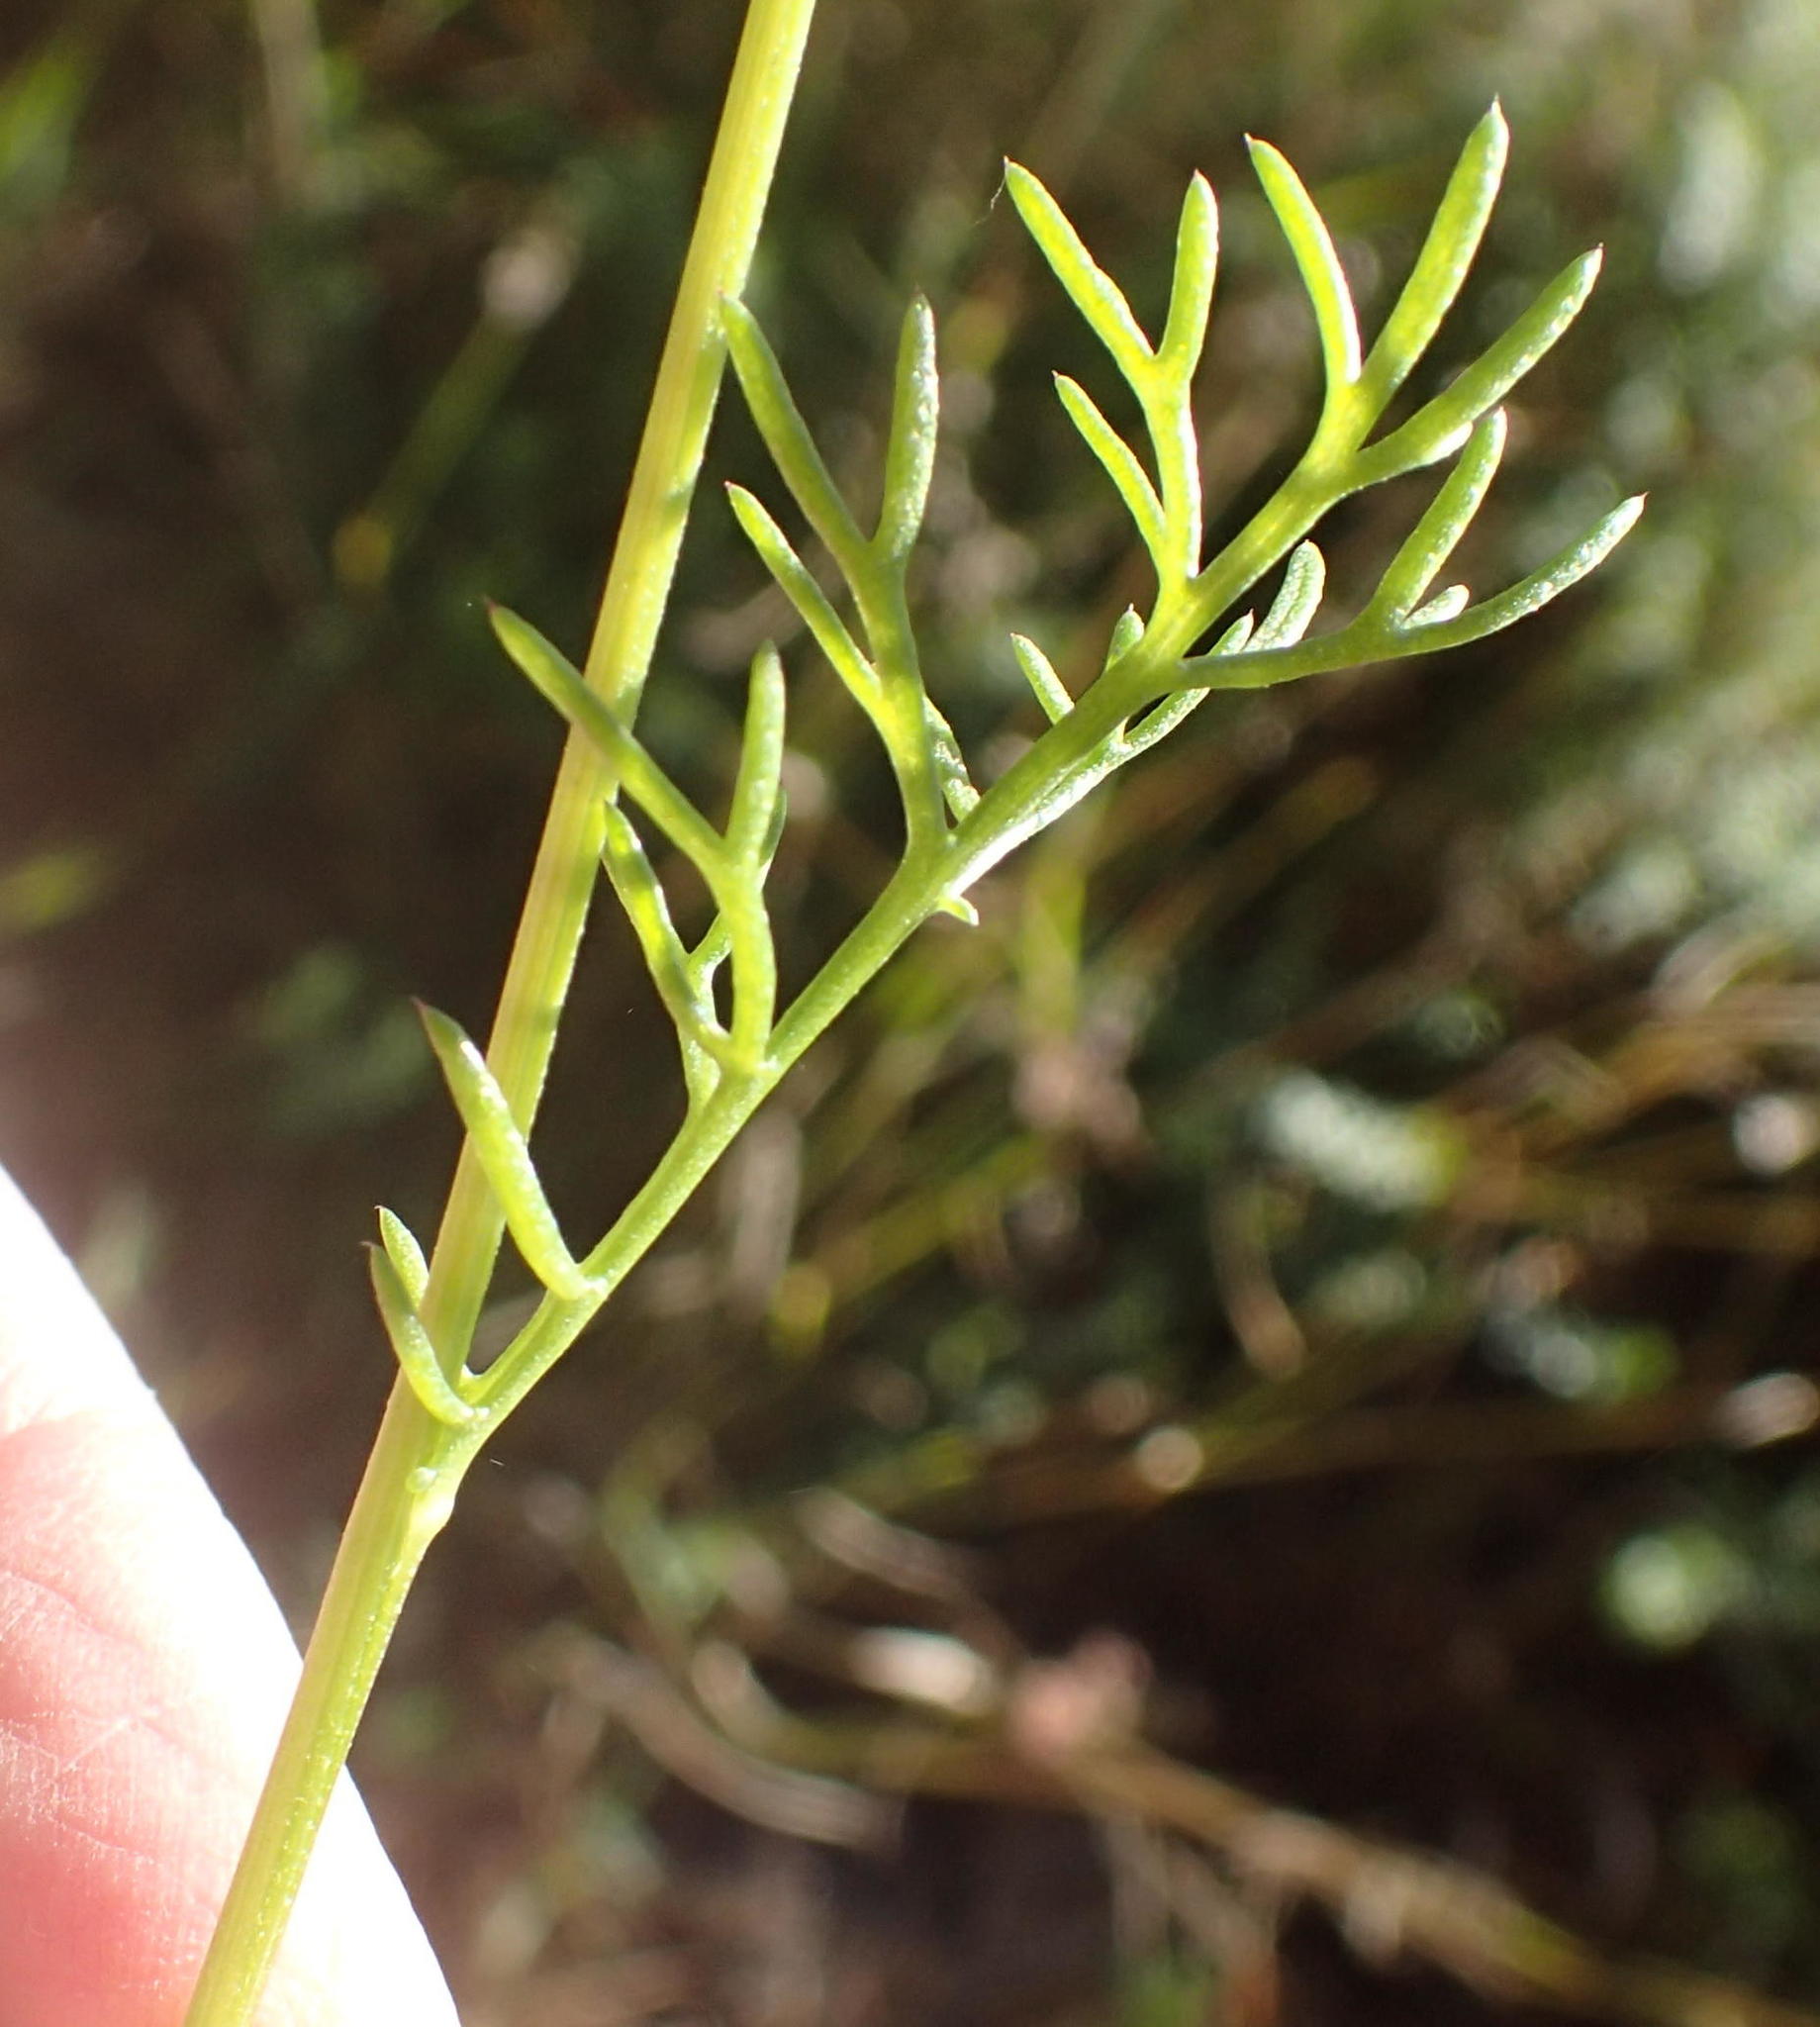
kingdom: Plantae
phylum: Tracheophyta
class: Magnoliopsida
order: Asterales
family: Asteraceae
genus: Ursinia
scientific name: Ursinia anthemoides
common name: Ursinia
